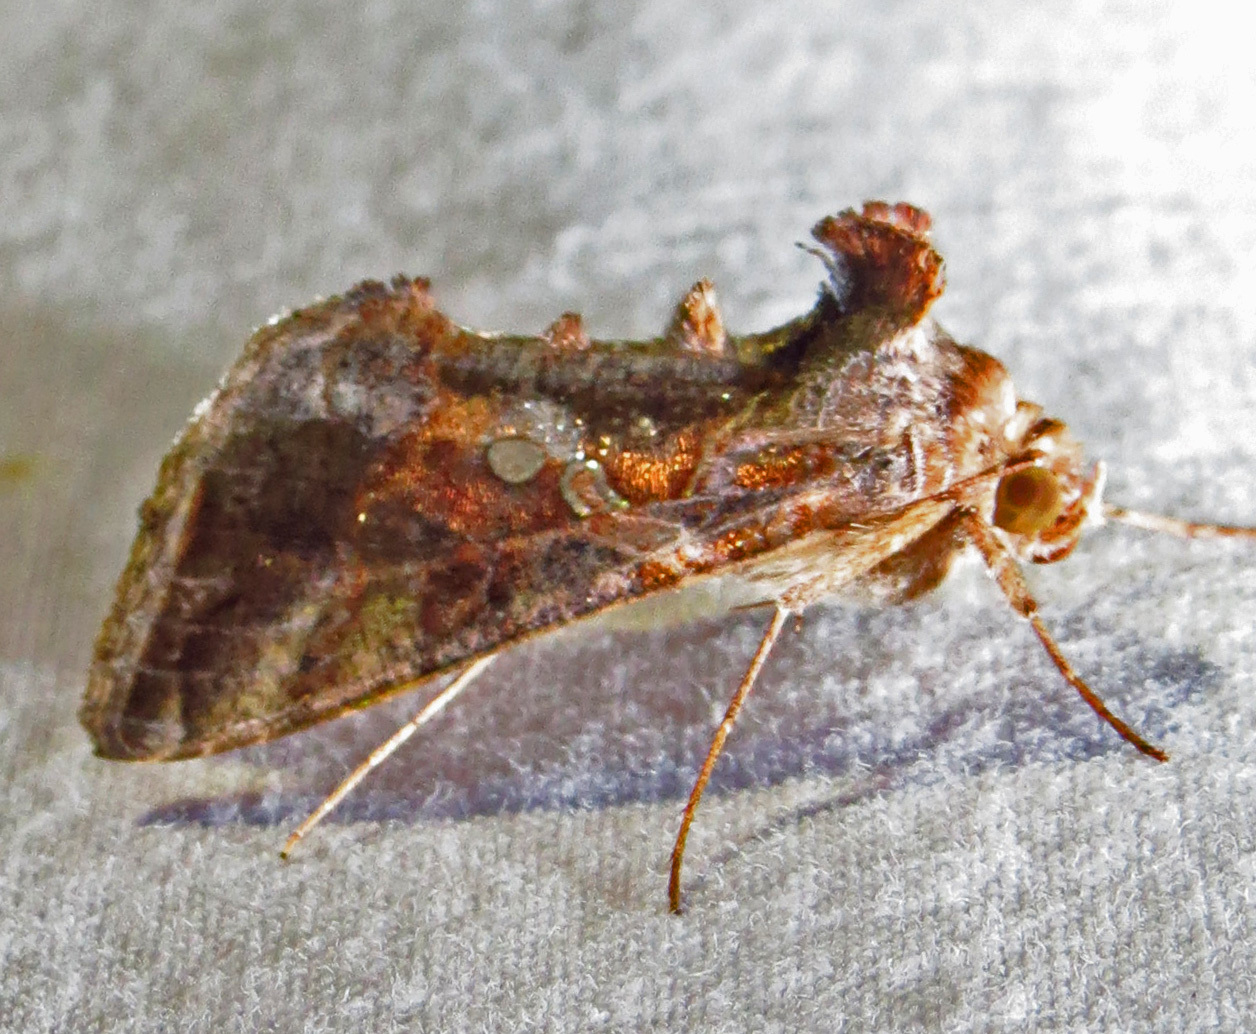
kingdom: Animalia
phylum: Arthropoda
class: Insecta
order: Lepidoptera
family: Noctuidae
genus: Chrysodeixis
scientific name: Chrysodeixis includens
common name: Cutworm moth
